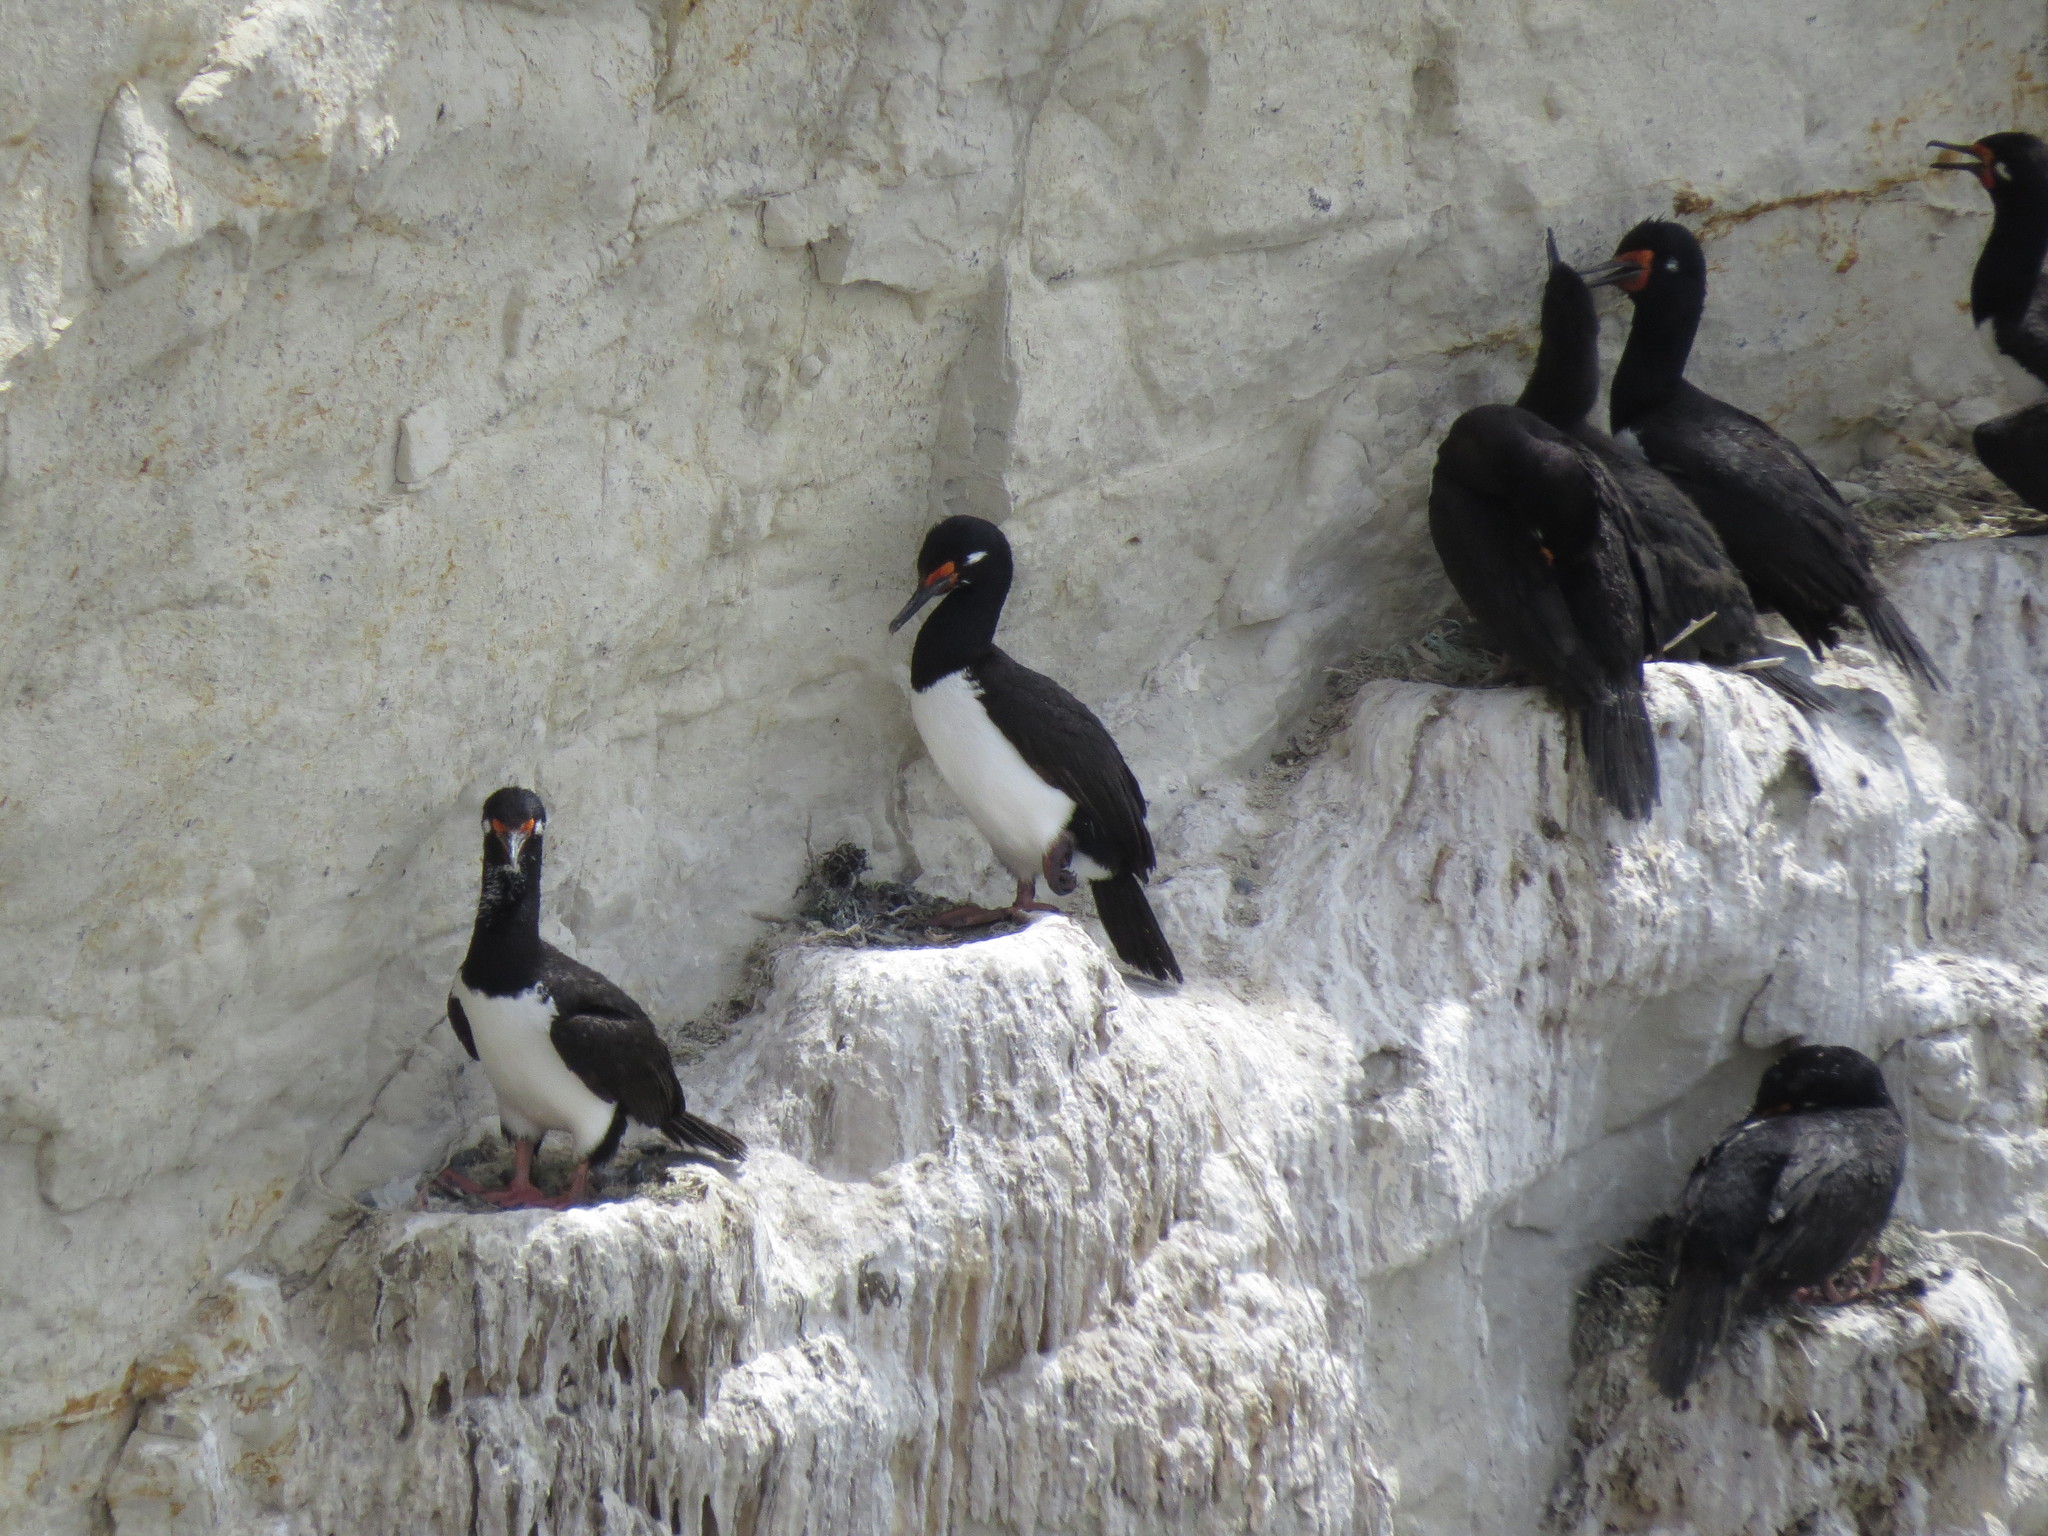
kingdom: Animalia
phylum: Chordata
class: Aves
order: Suliformes
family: Phalacrocoracidae
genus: Phalacrocorax
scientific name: Phalacrocorax magellanicus
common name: Rock shag
